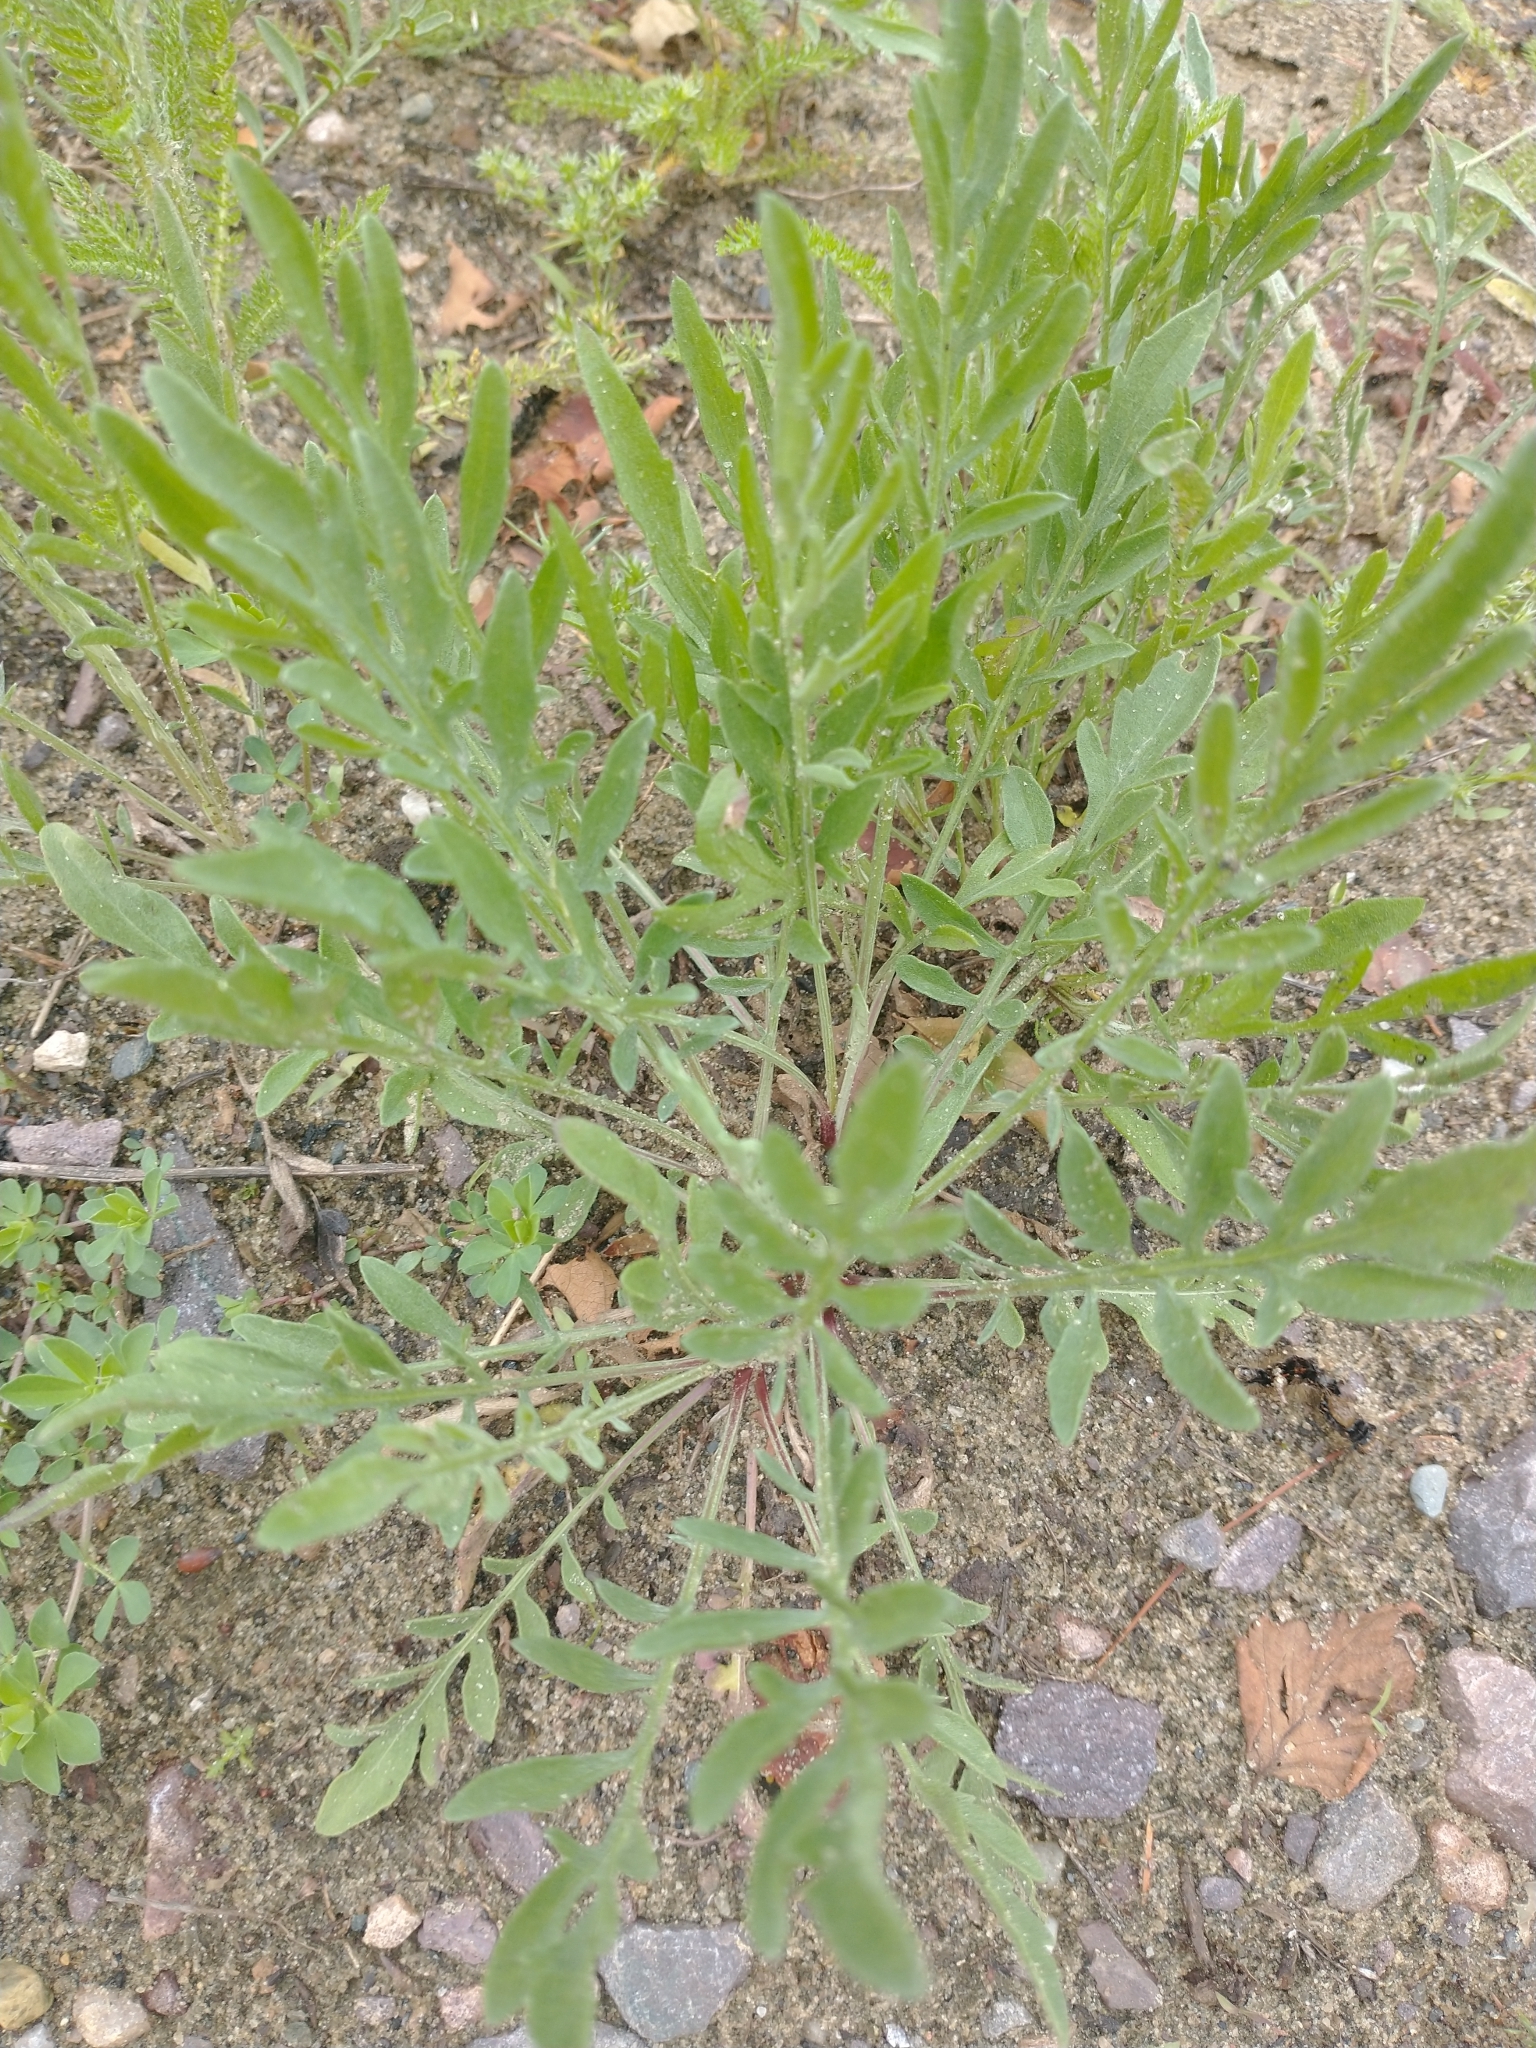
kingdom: Plantae
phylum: Tracheophyta
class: Magnoliopsida
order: Asterales
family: Asteraceae
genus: Centaurea
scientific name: Centaurea stoebe
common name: Spotted knapweed
